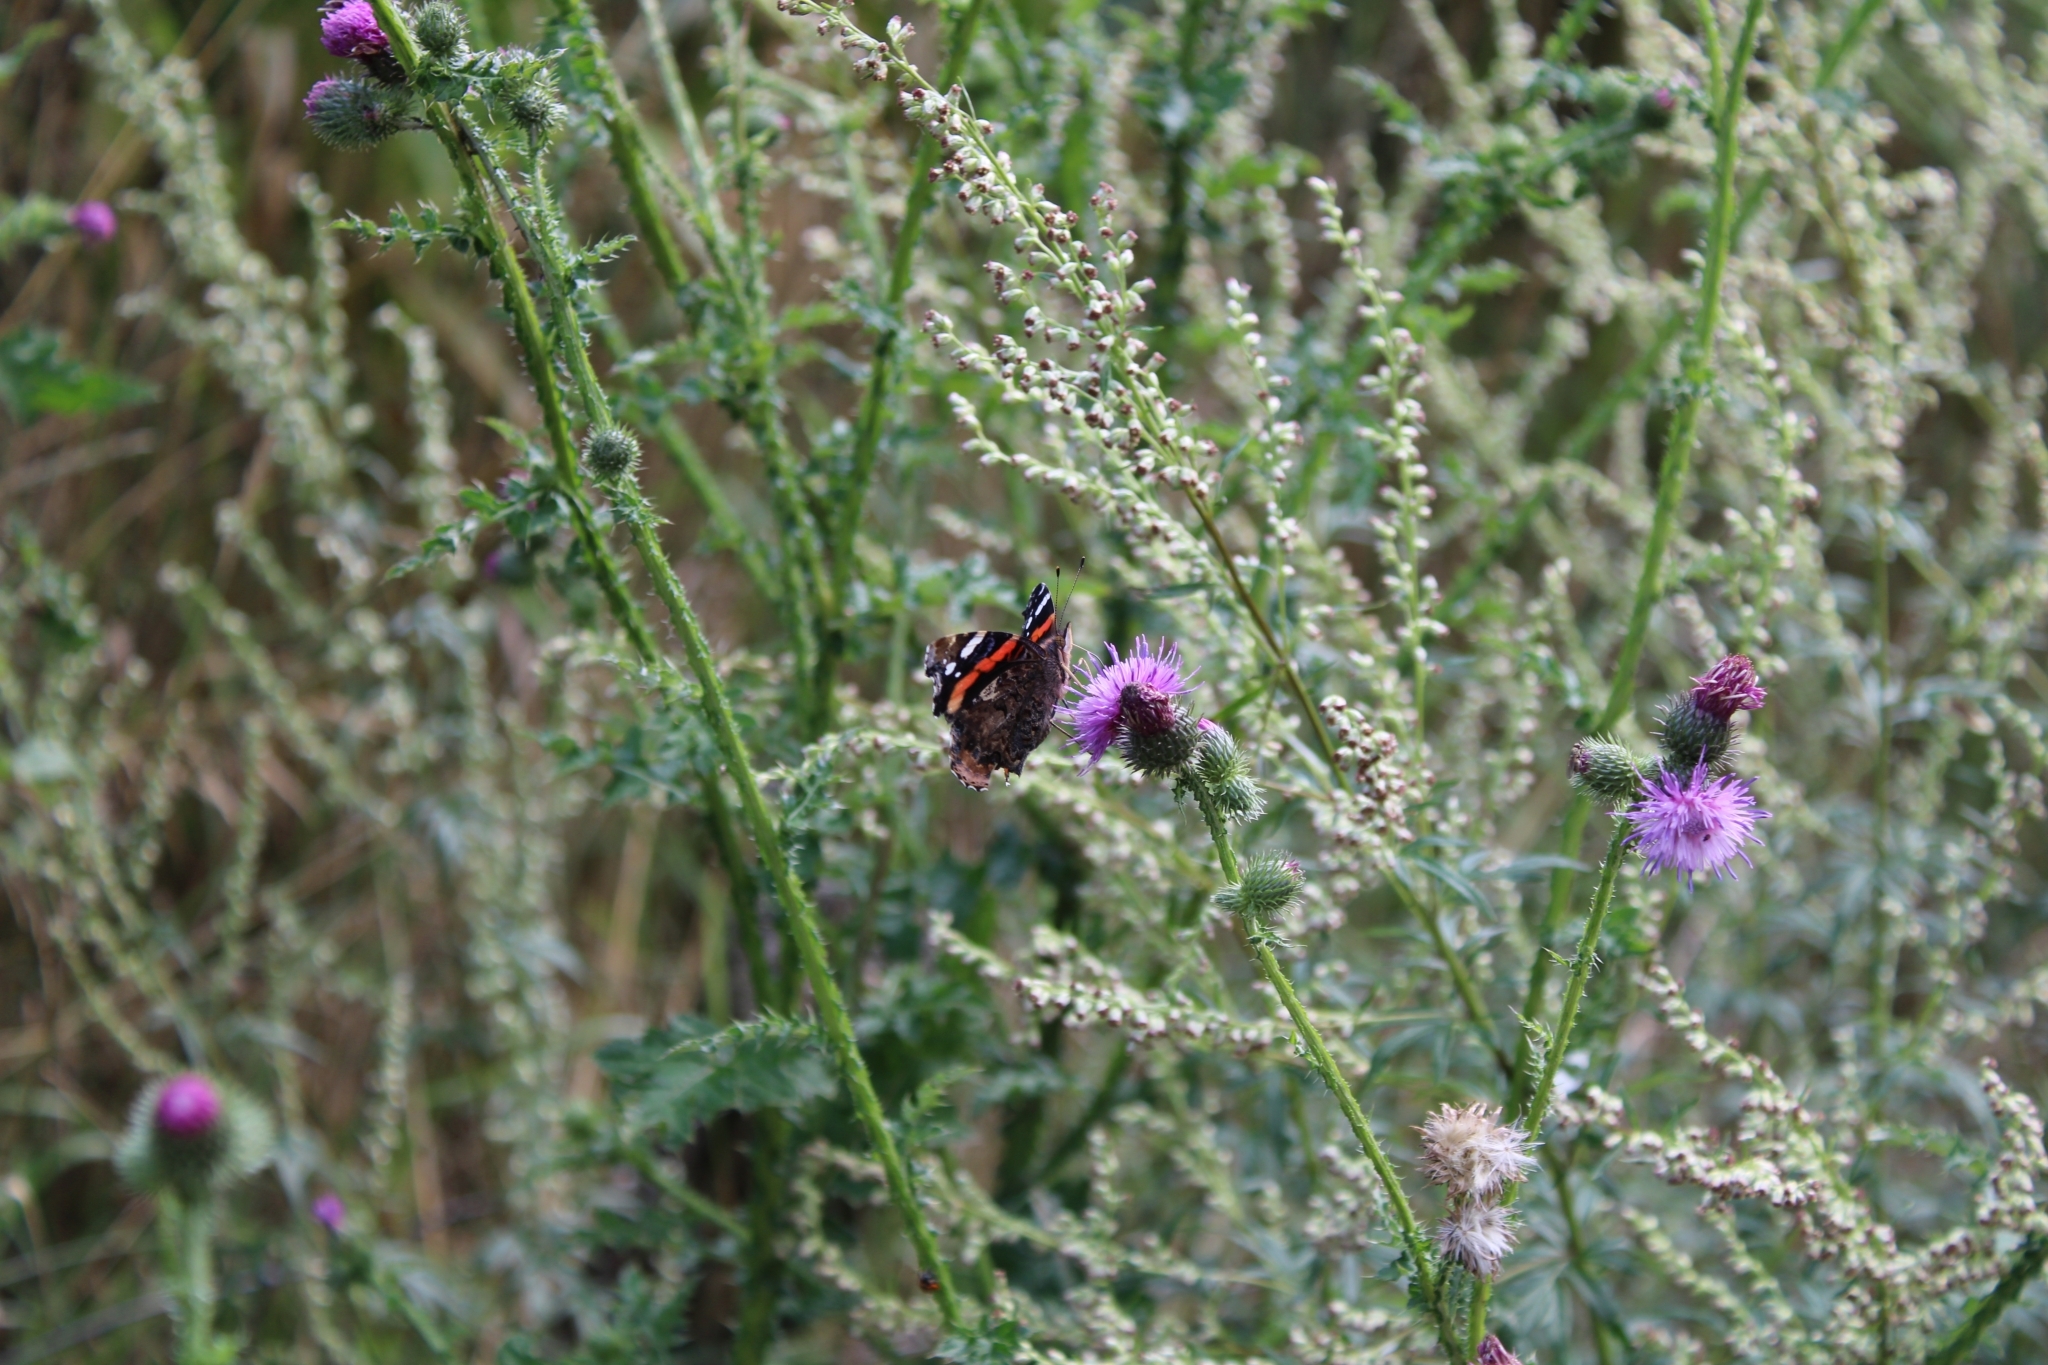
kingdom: Animalia
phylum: Arthropoda
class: Insecta
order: Lepidoptera
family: Nymphalidae
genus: Vanessa
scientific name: Vanessa atalanta
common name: Red admiral
